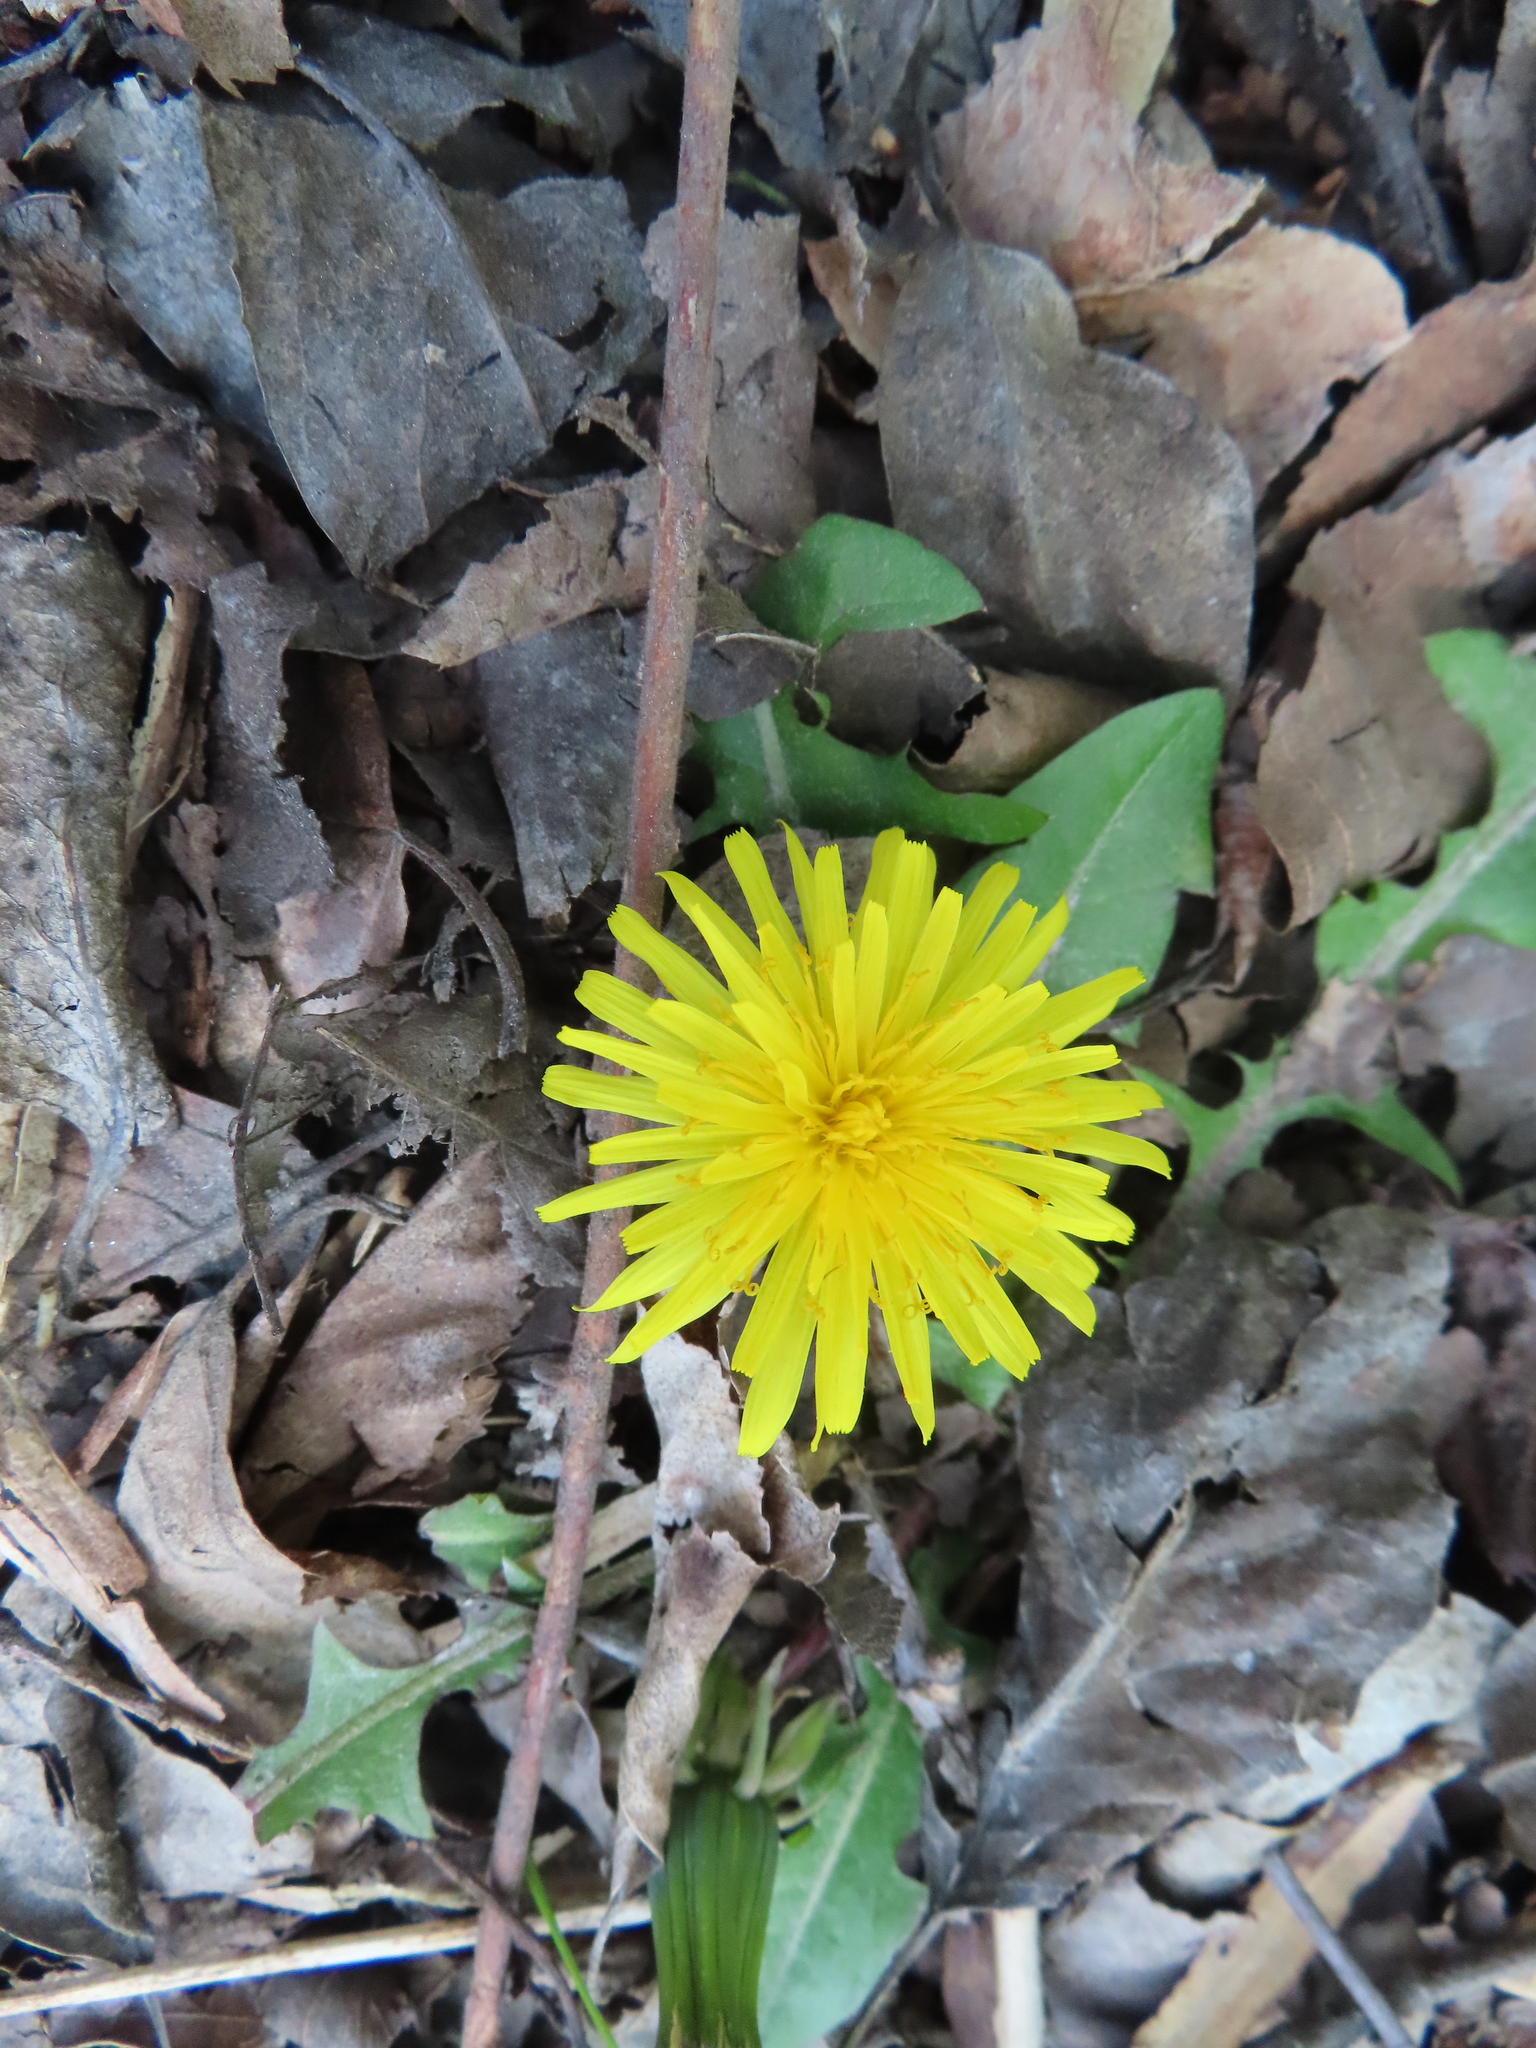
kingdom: Plantae
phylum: Tracheophyta
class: Magnoliopsida
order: Asterales
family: Asteraceae
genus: Taraxacum
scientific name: Taraxacum
